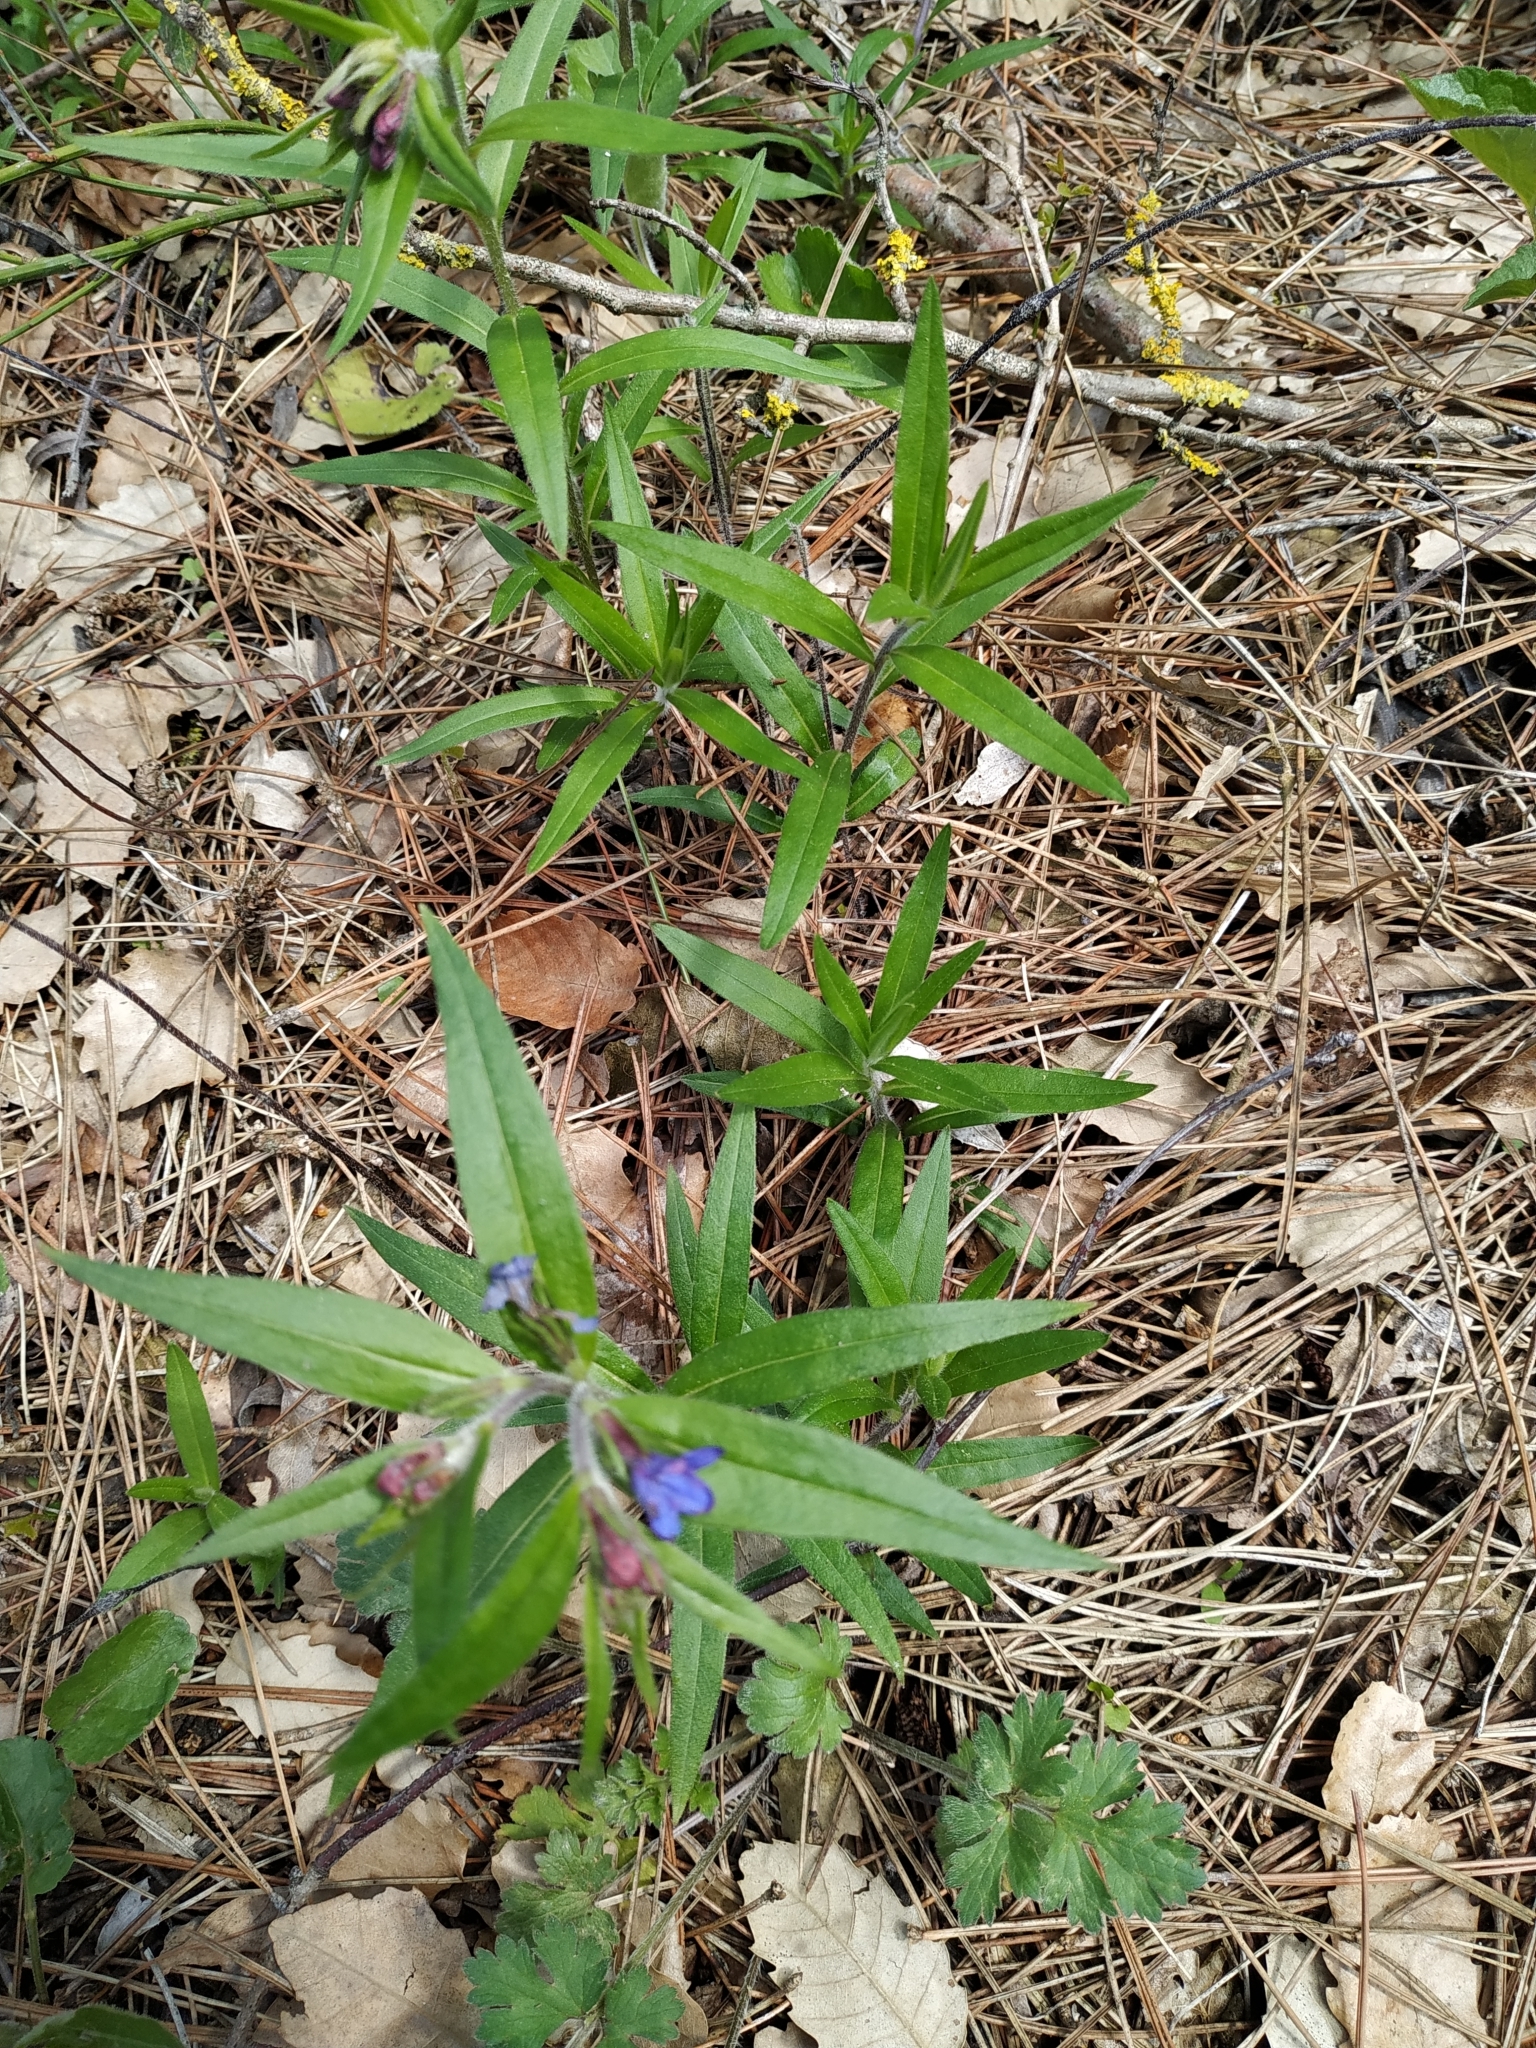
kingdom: Plantae
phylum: Tracheophyta
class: Magnoliopsida
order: Boraginales
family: Boraginaceae
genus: Aegonychon
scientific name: Aegonychon purpurocaeruleum
